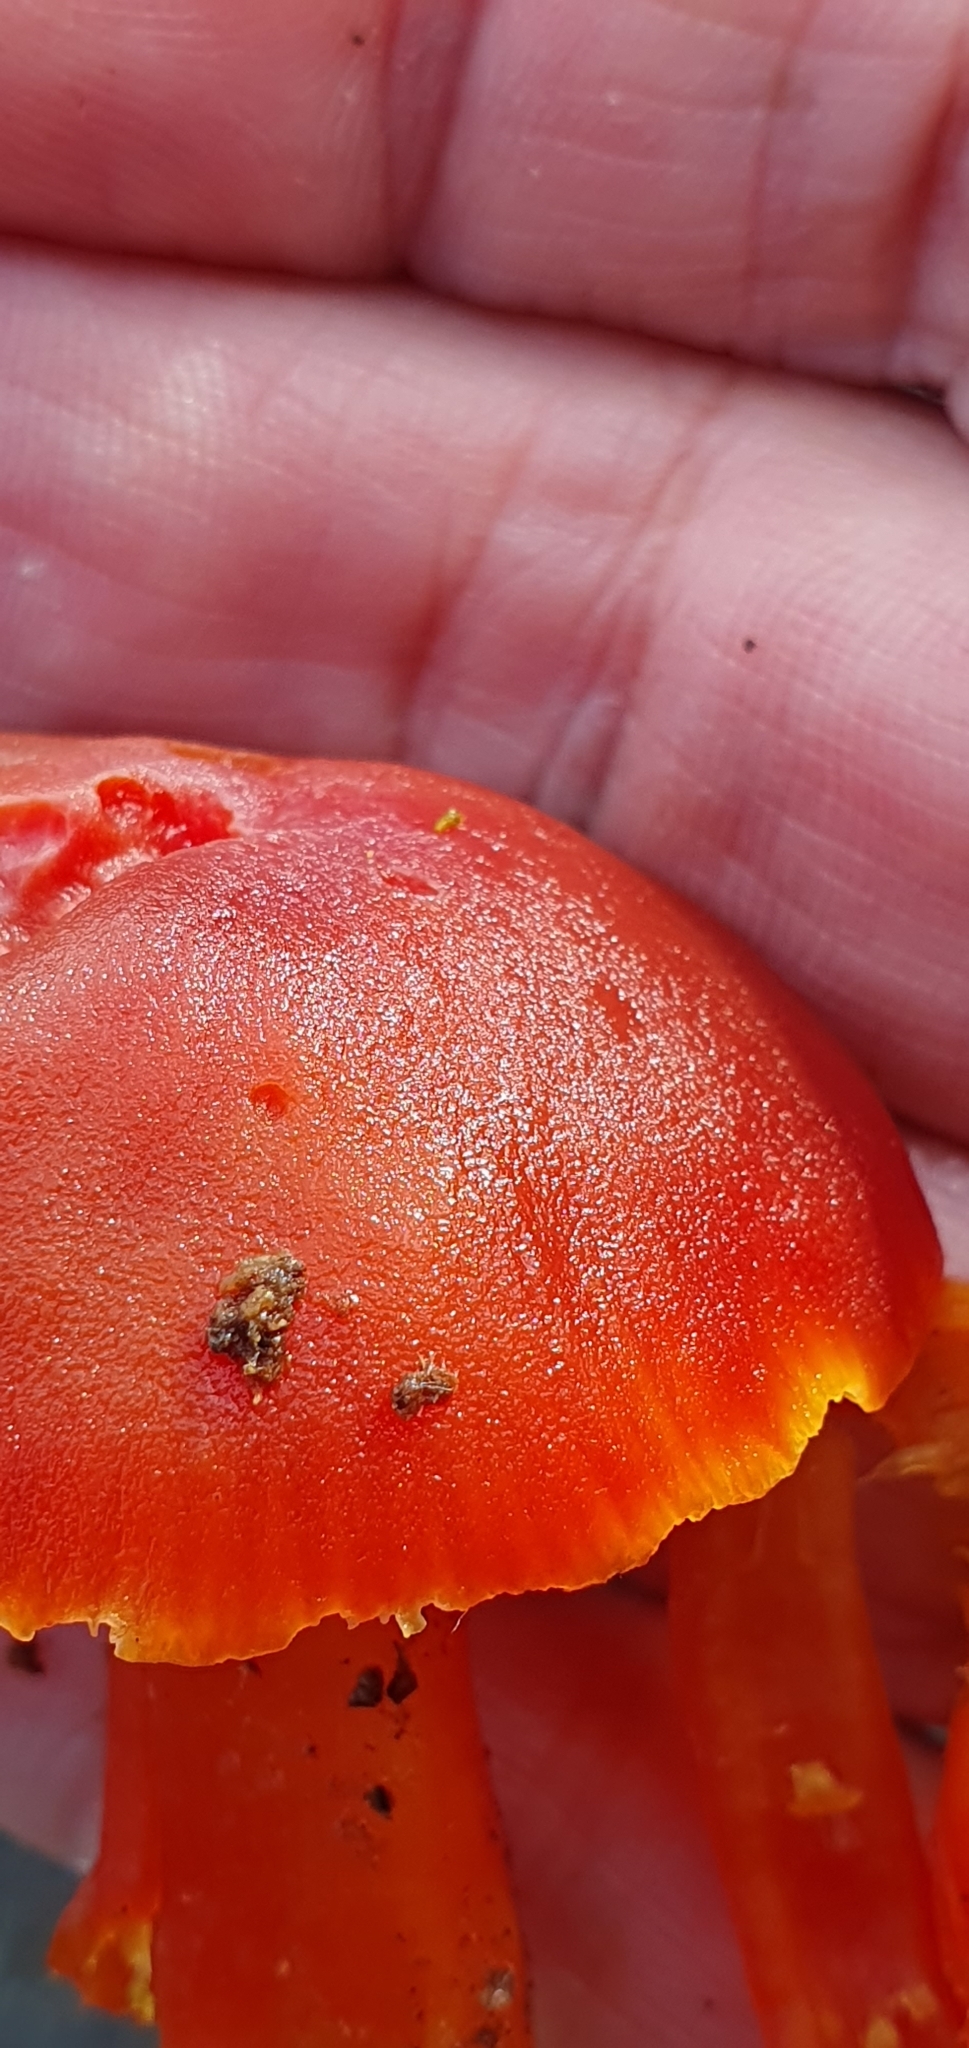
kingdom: Fungi
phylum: Basidiomycota
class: Agaricomycetes
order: Agaricales
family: Hygrophoraceae
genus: Hygrocybe
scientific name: Hygrocybe coccinea
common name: Scarlet hood
